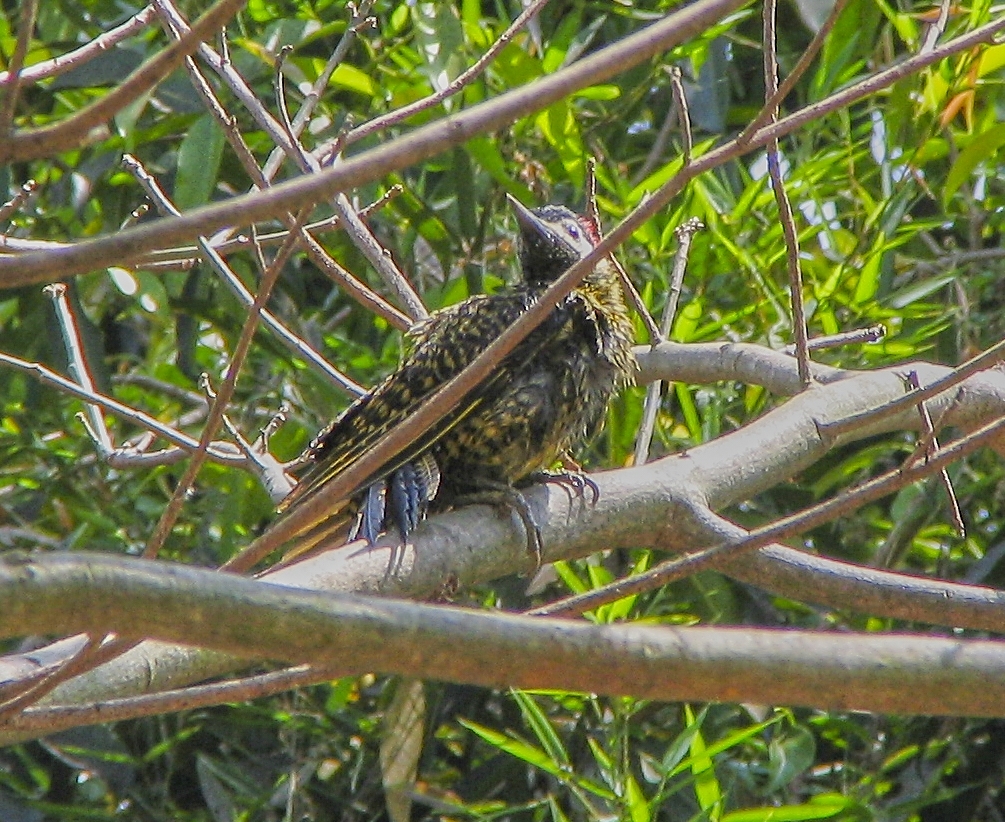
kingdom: Animalia
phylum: Chordata
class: Aves
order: Piciformes
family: Picidae
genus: Colaptes
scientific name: Colaptes melanochloros
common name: Green-barred woodpecker
